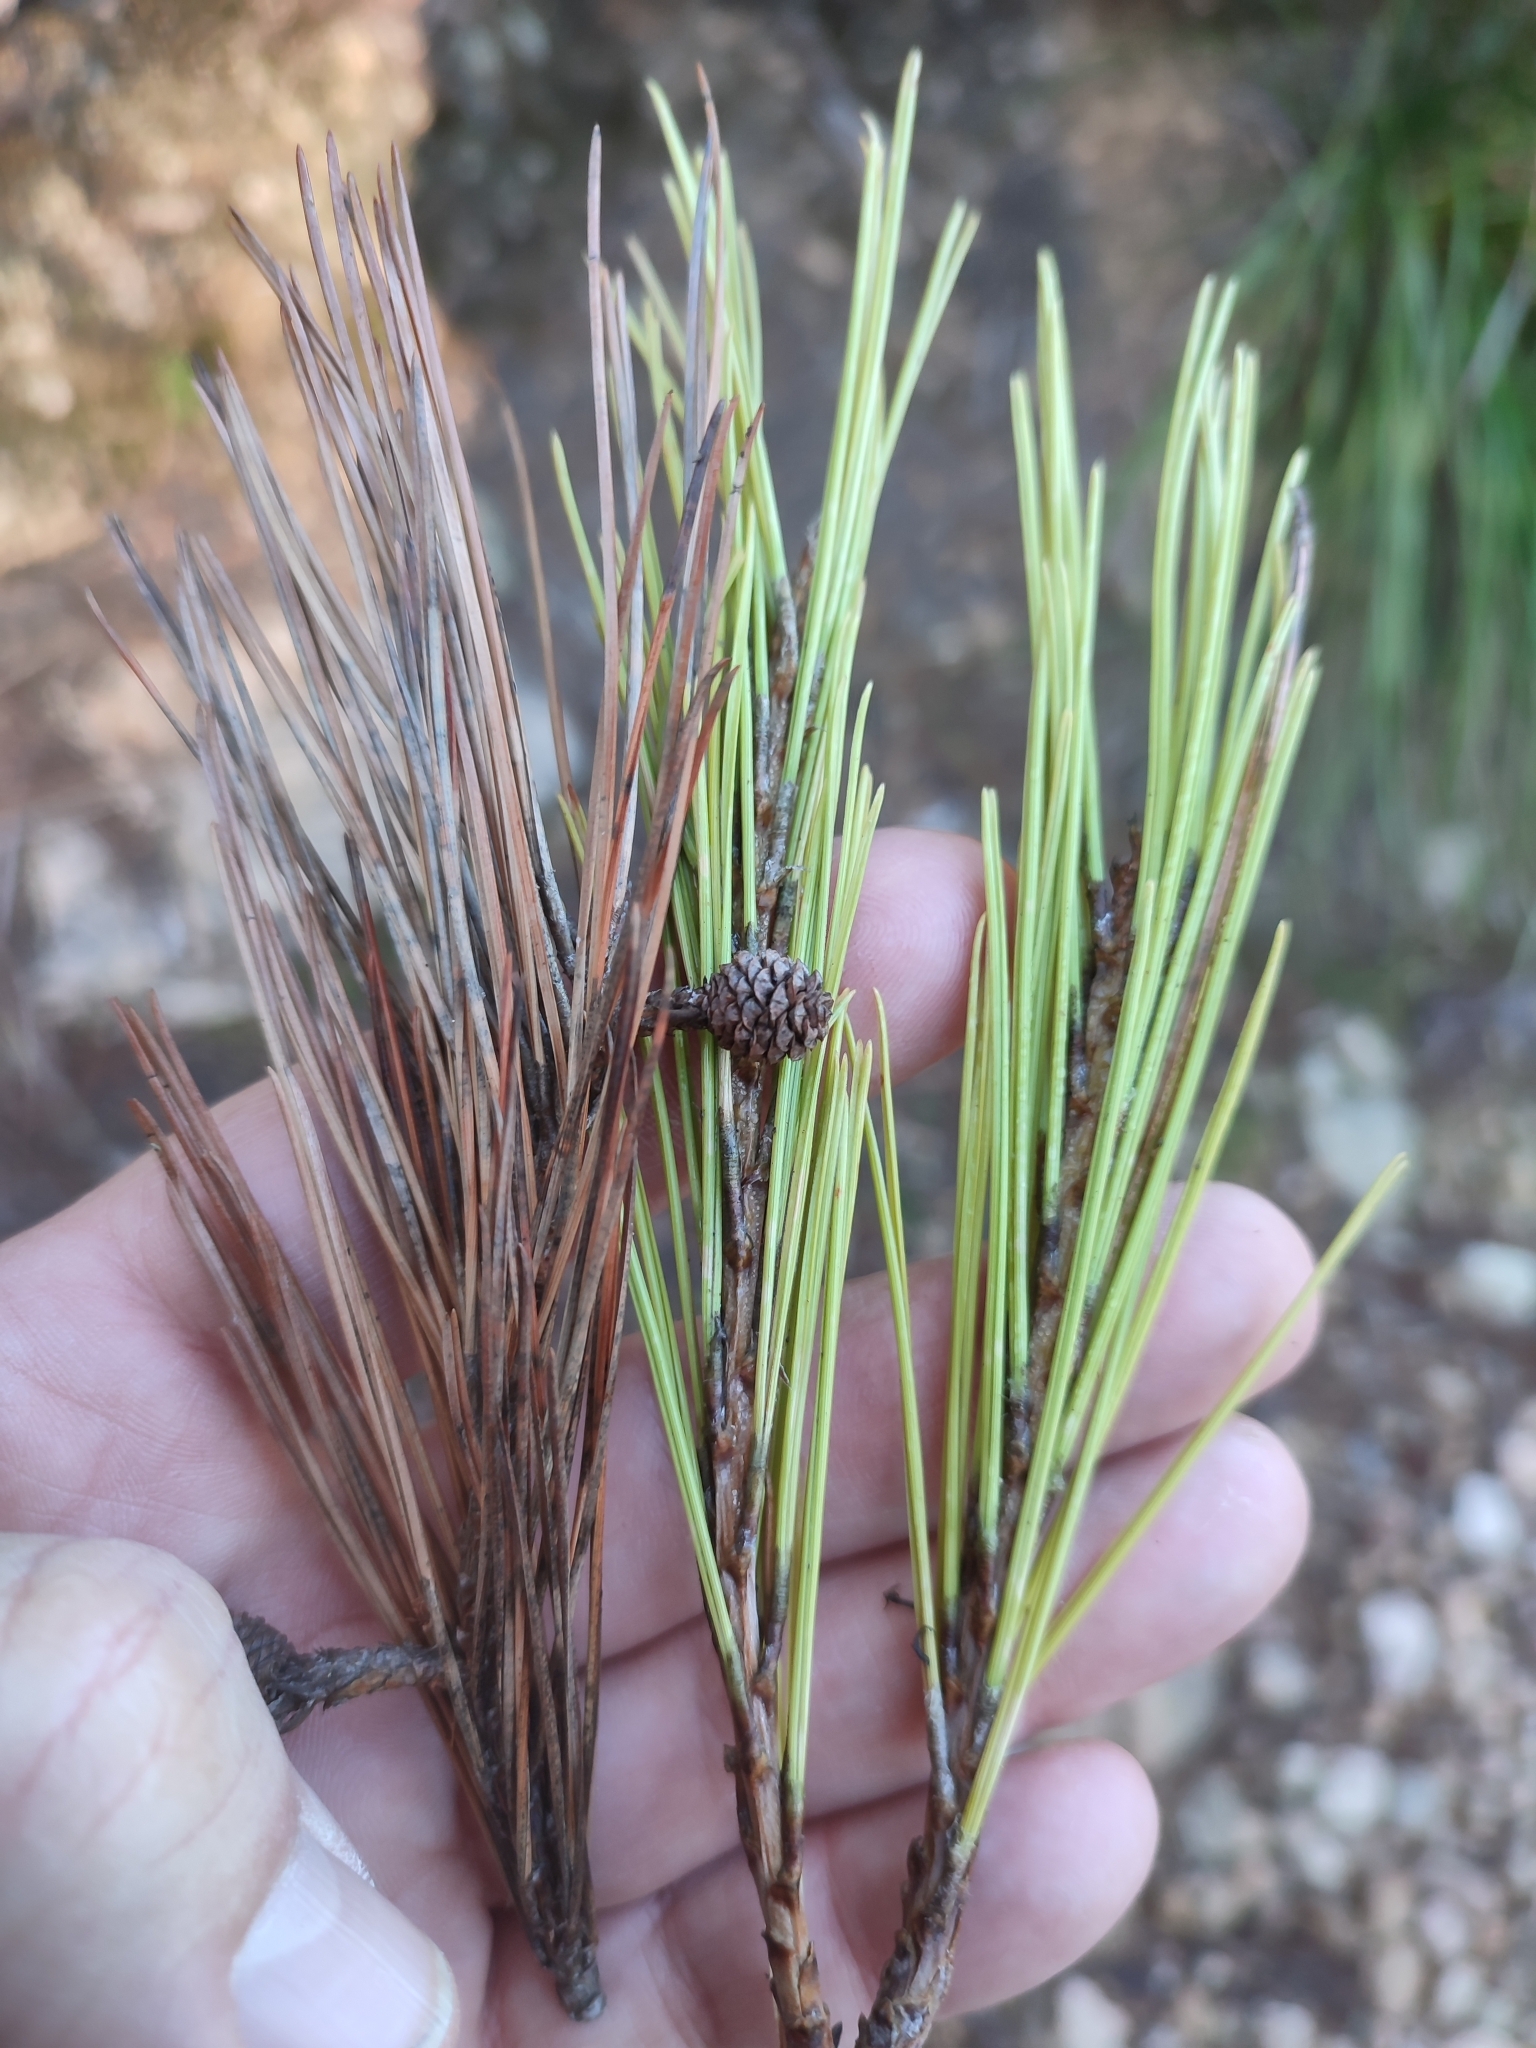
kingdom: Plantae
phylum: Tracheophyta
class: Pinopsida
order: Pinales
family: Pinaceae
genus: Pinus
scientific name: Pinus halepensis
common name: Aleppo pine
